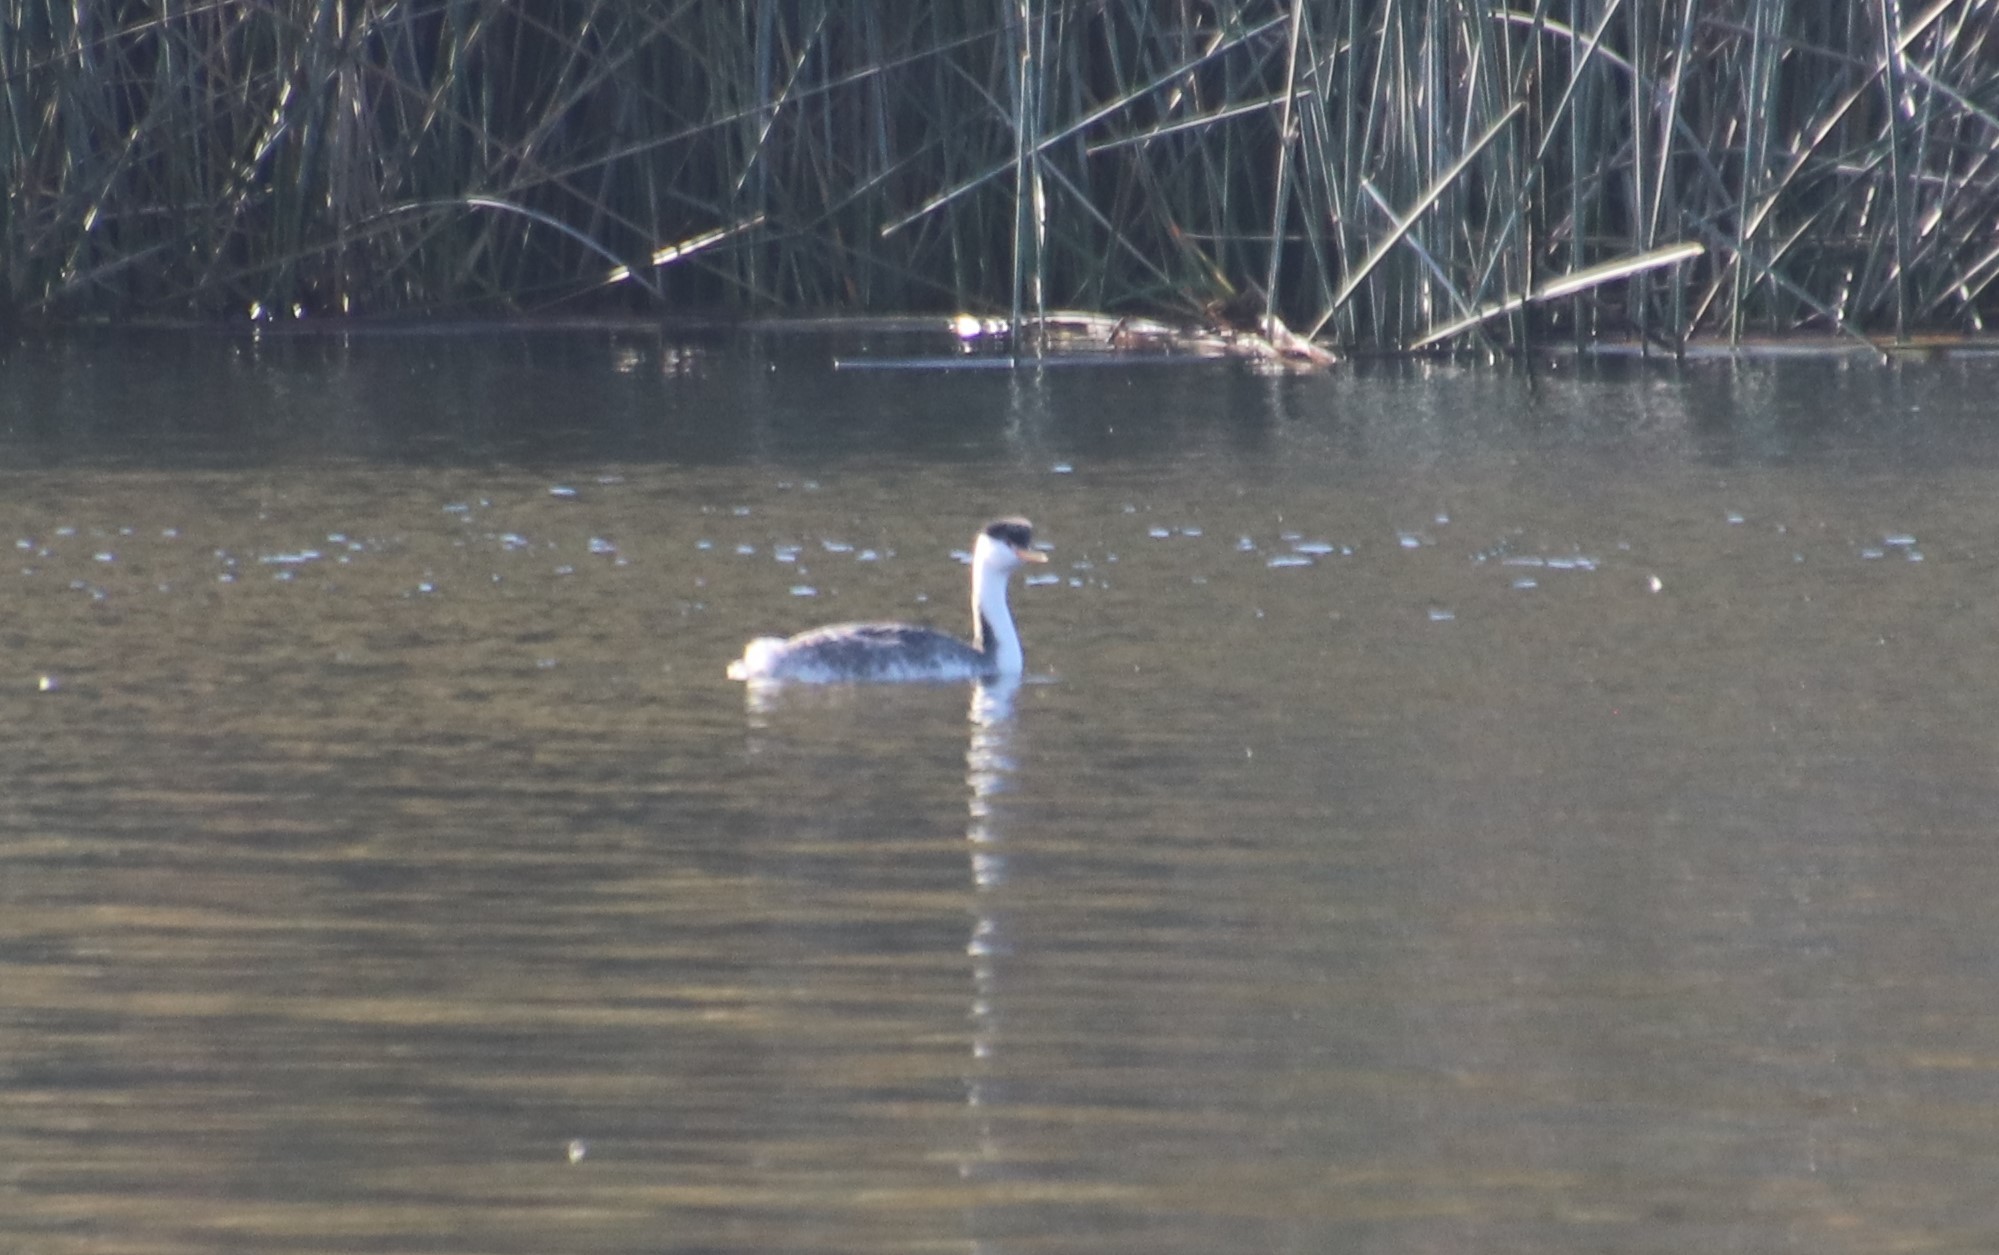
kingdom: Animalia
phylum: Chordata
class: Aves
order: Podicipediformes
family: Podicipedidae
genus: Aechmophorus
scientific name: Aechmophorus clarkii
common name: Clark's grebe
